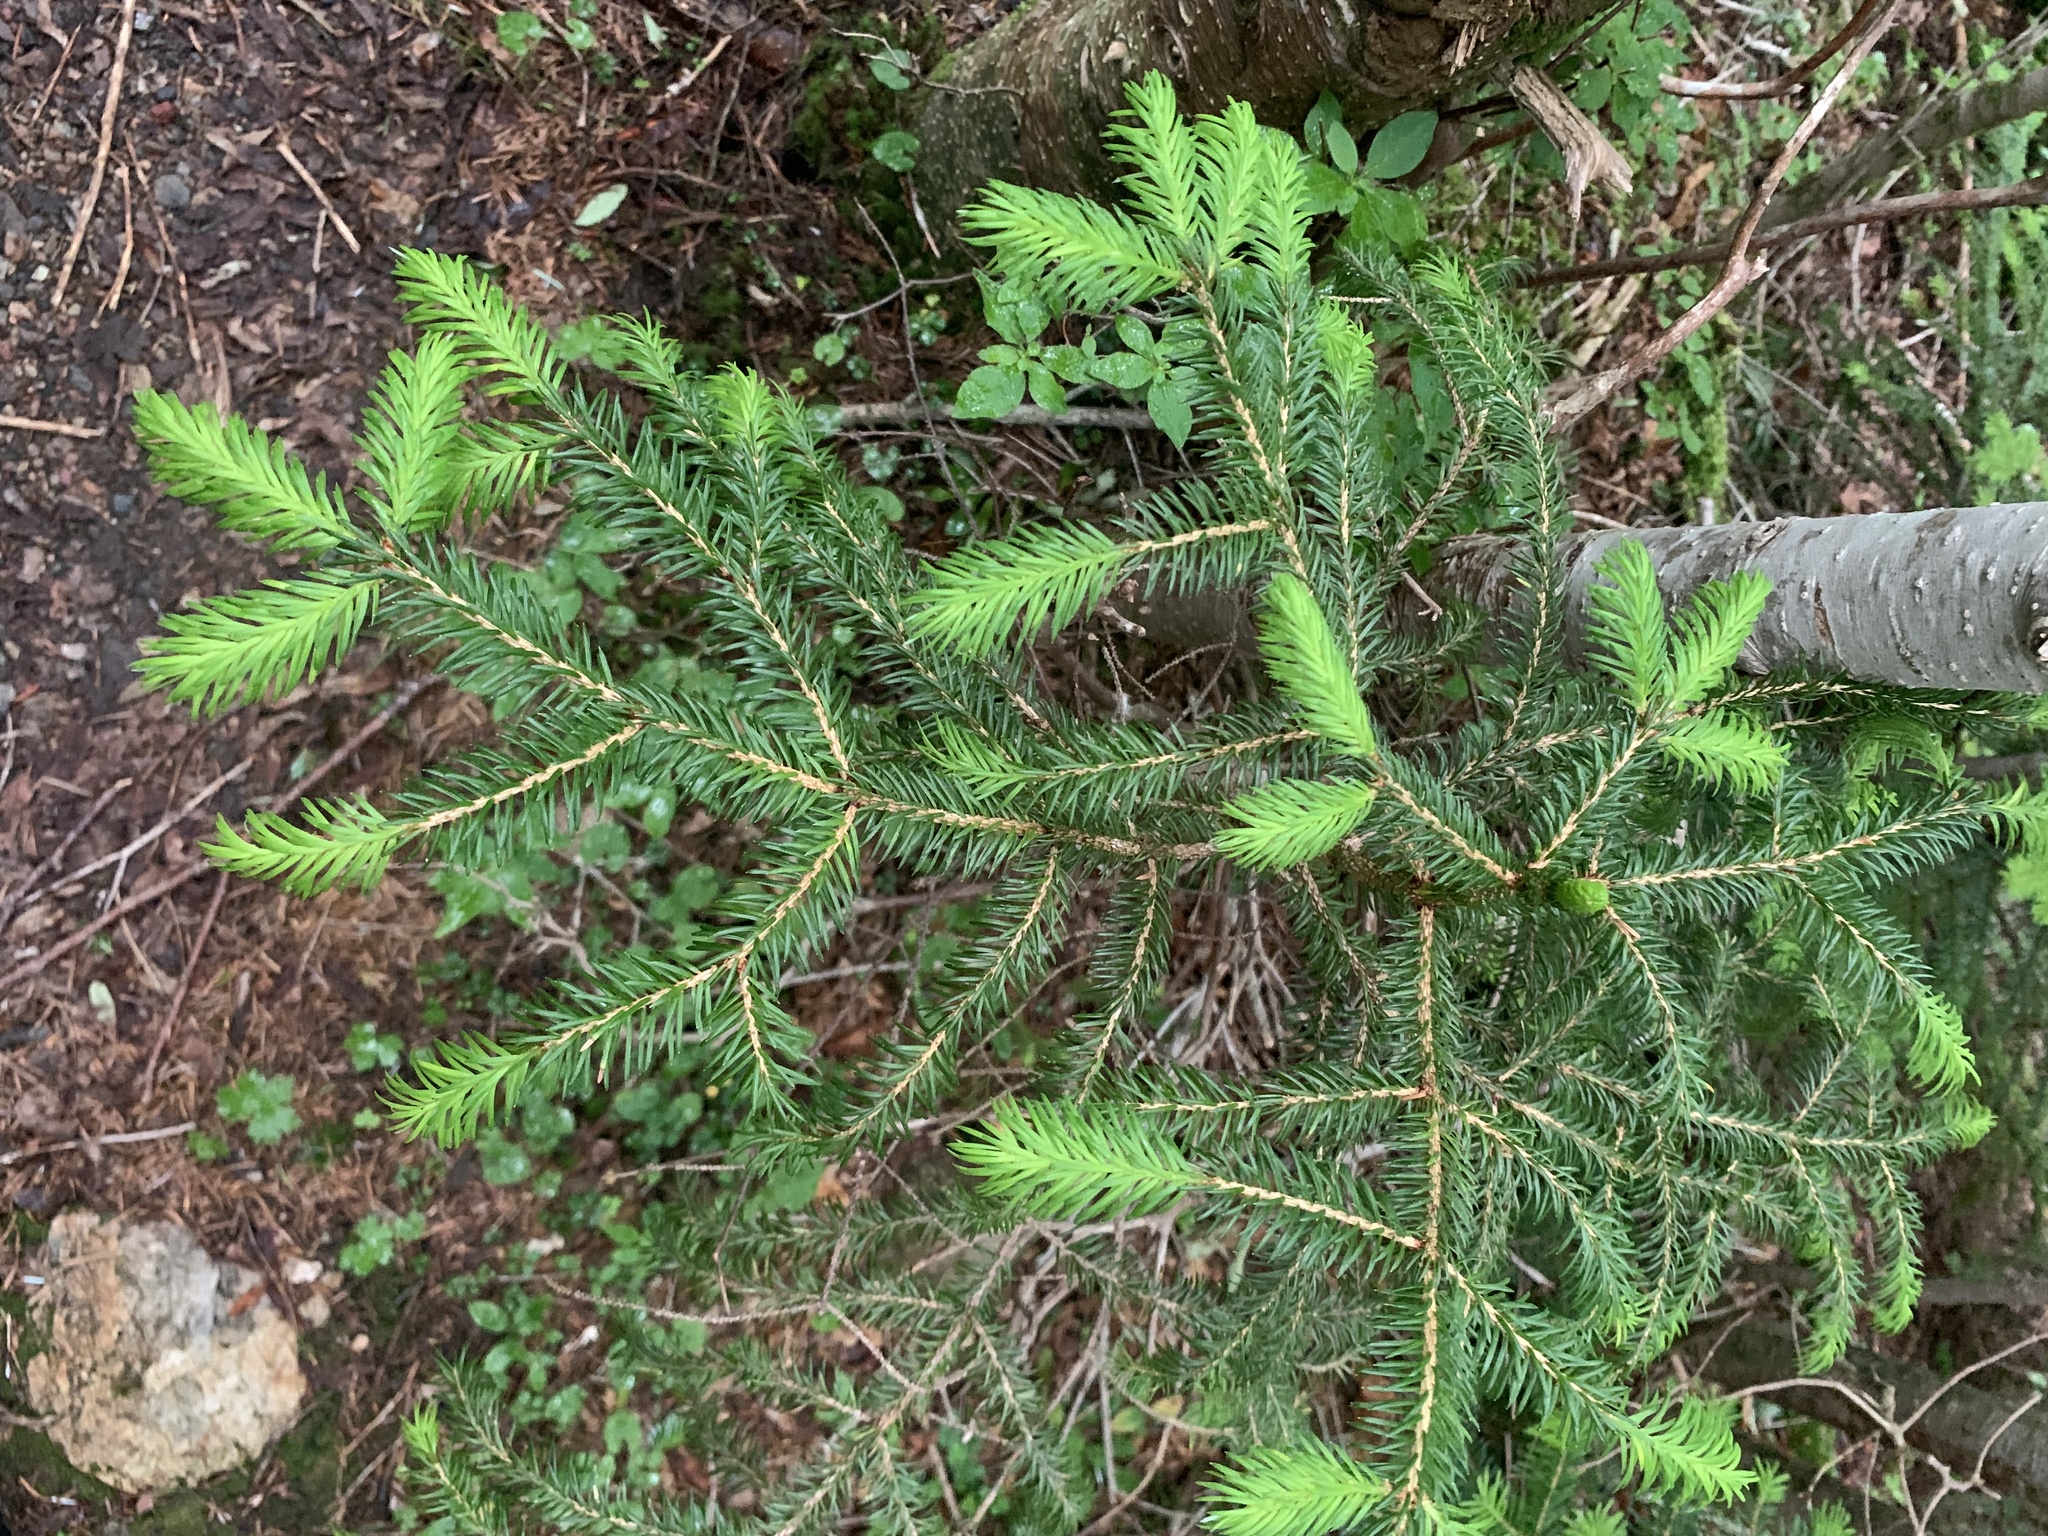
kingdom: Plantae
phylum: Tracheophyta
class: Pinopsida
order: Pinales
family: Pinaceae
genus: Picea
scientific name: Picea jezoensis
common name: Yeddo spruce
